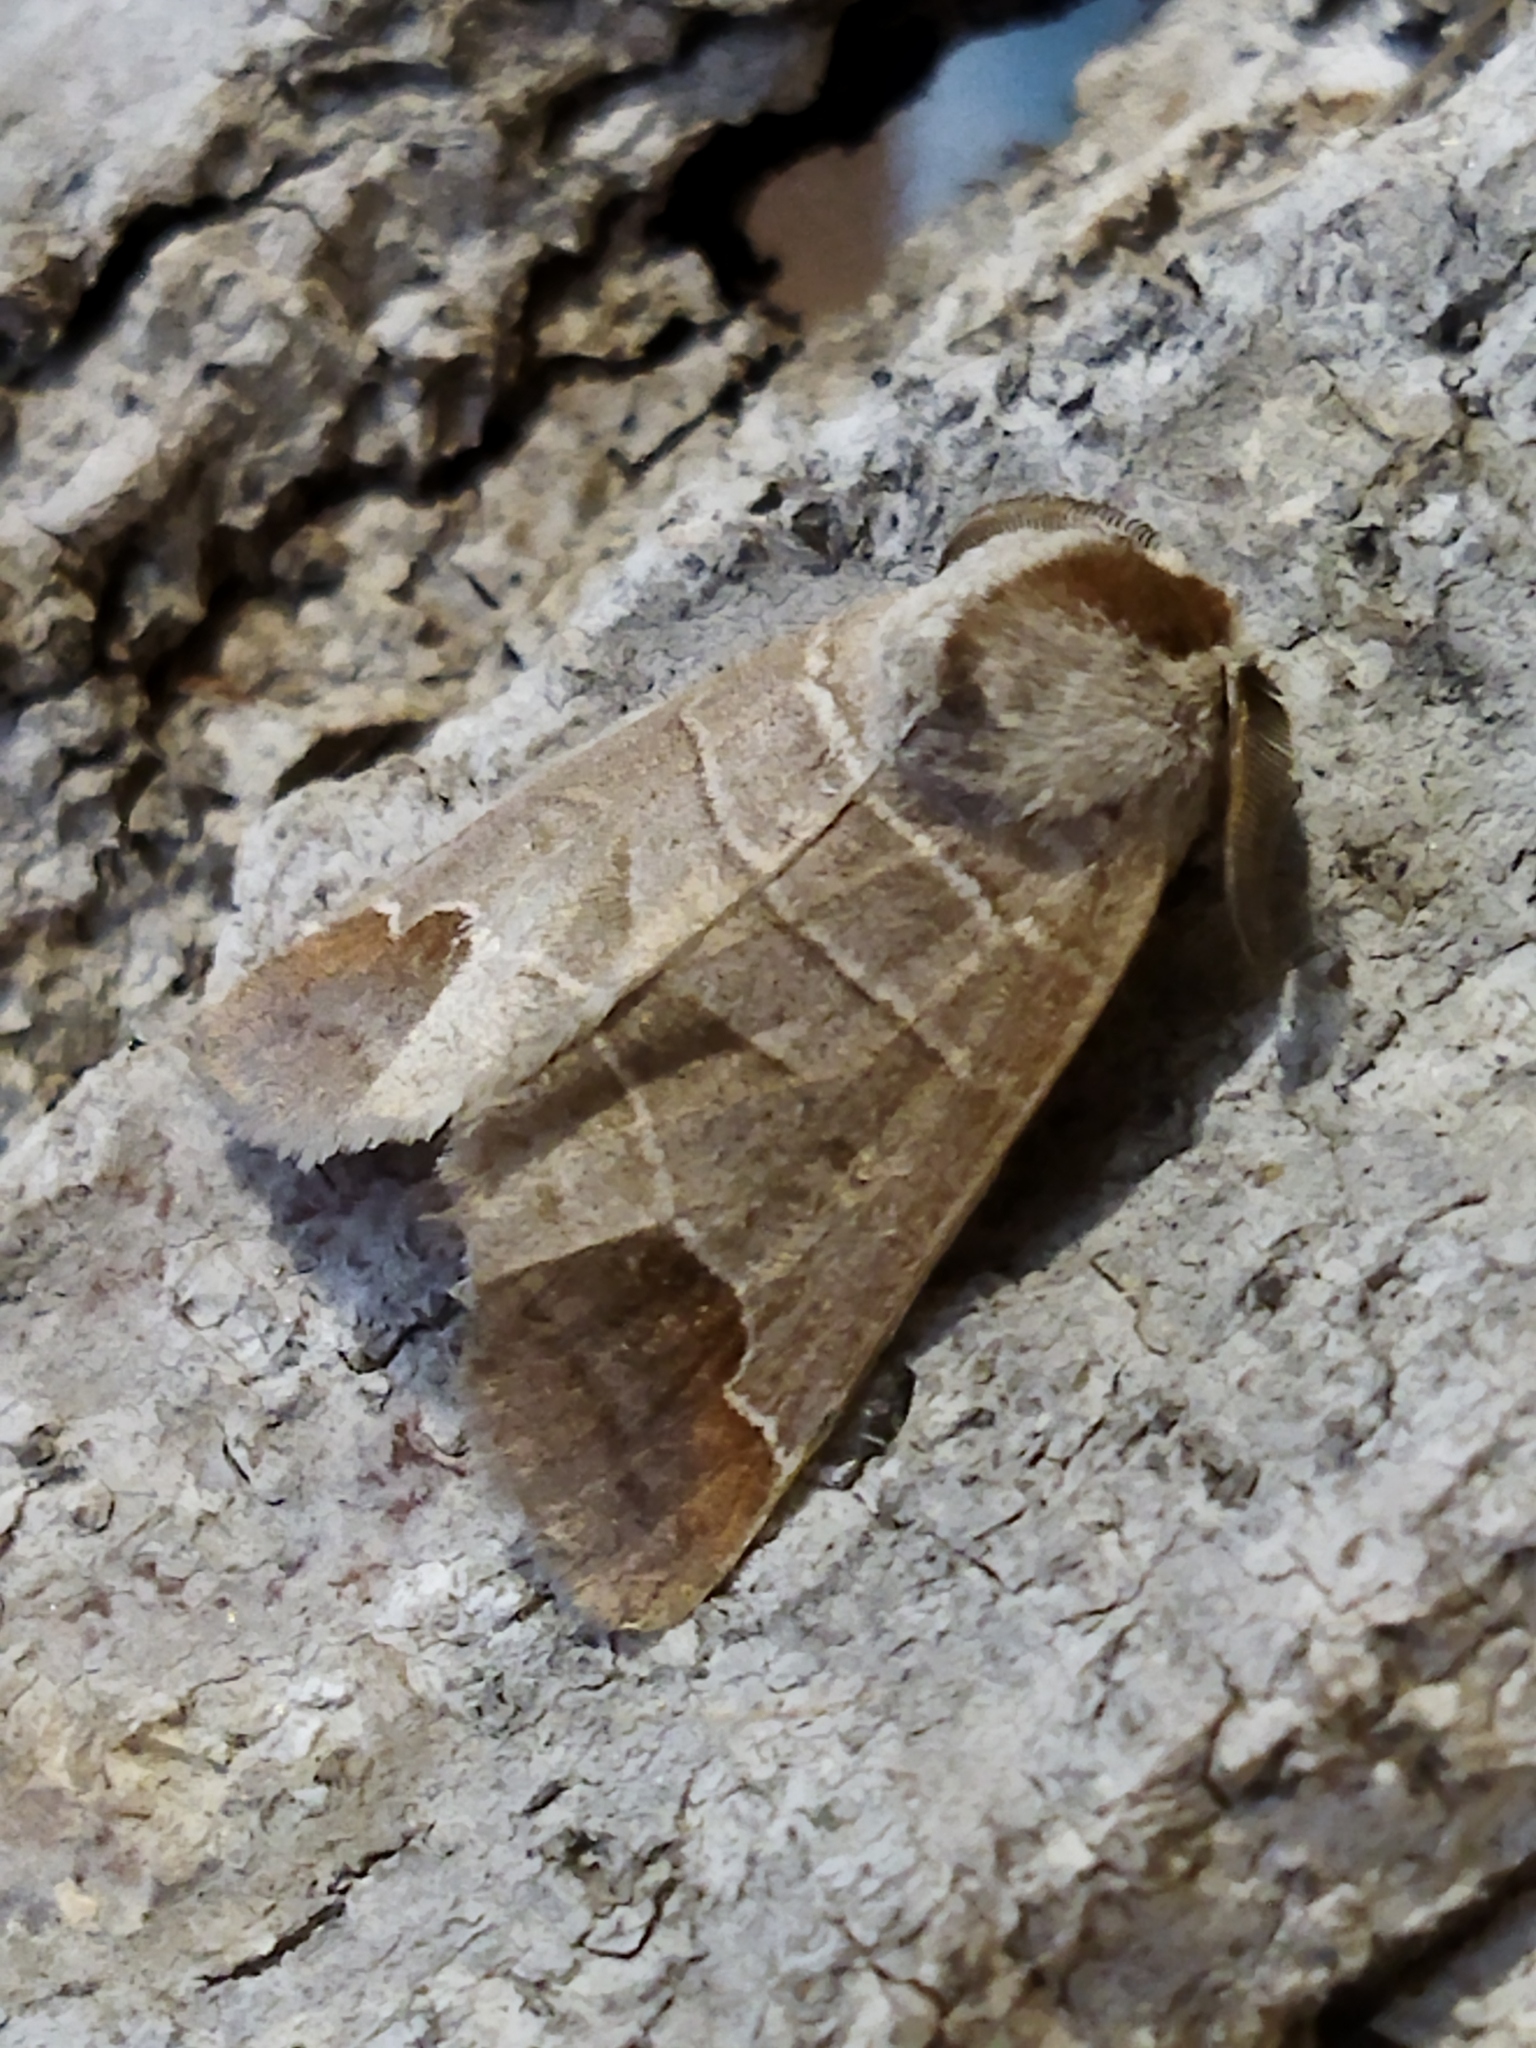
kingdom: Animalia
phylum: Arthropoda
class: Insecta
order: Lepidoptera
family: Notodontidae
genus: Clostera
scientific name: Clostera curtula
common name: Chocolate-tip
